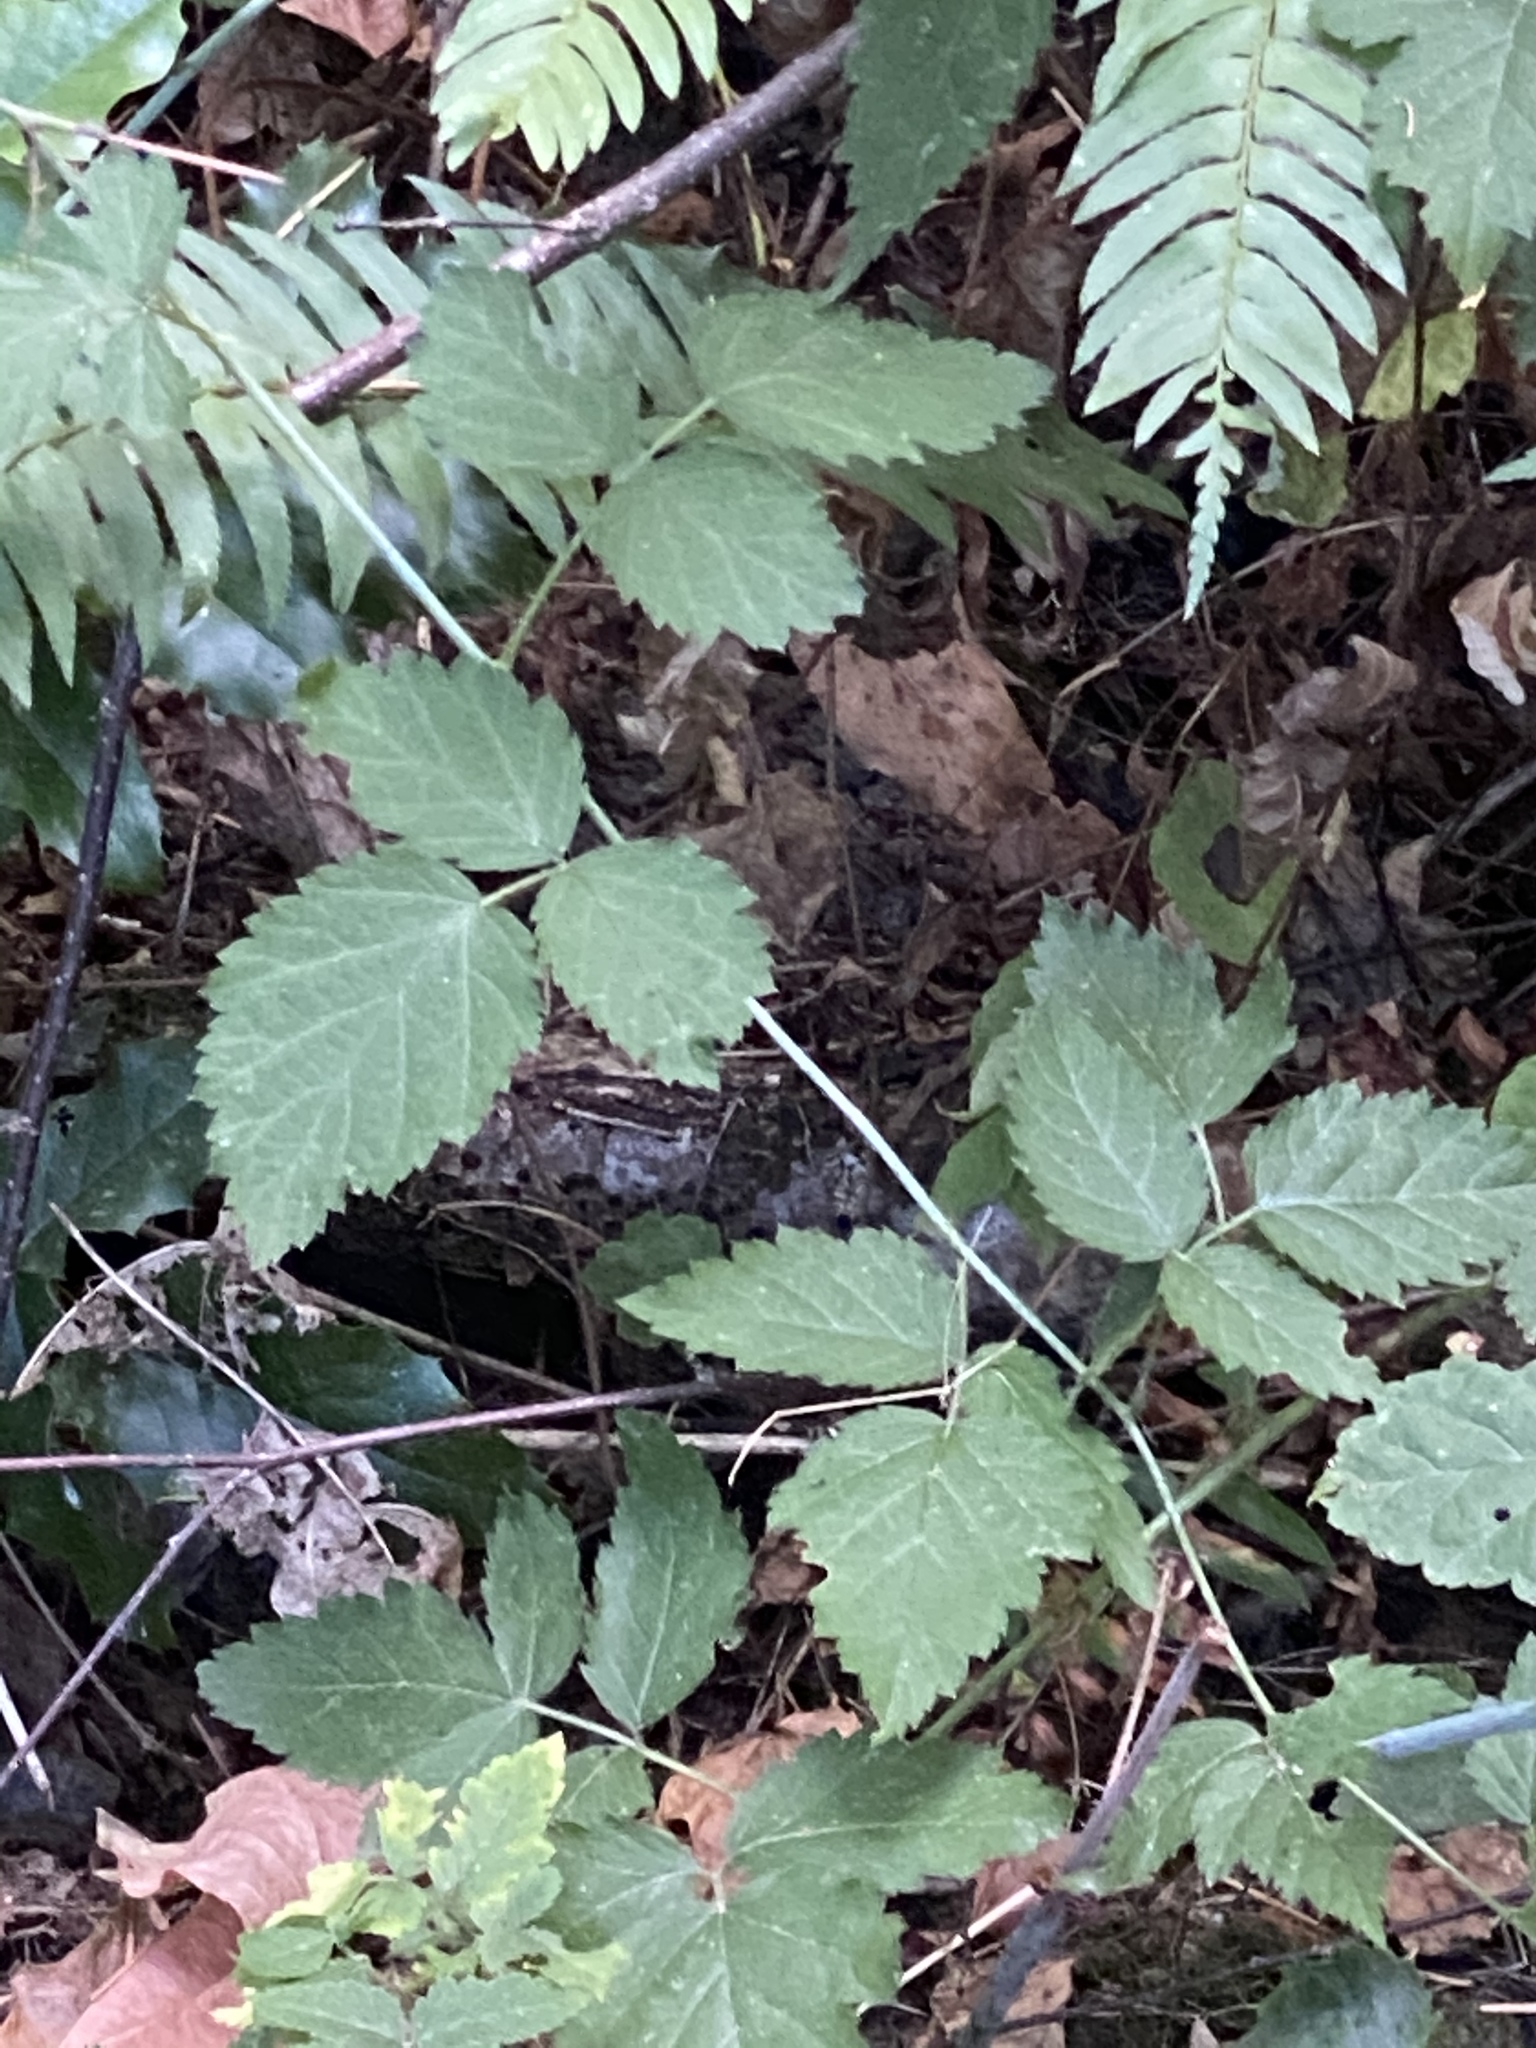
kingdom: Plantae
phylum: Tracheophyta
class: Magnoliopsida
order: Rosales
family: Rosaceae
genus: Rubus
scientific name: Rubus ursinus
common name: Pacific blackberry
